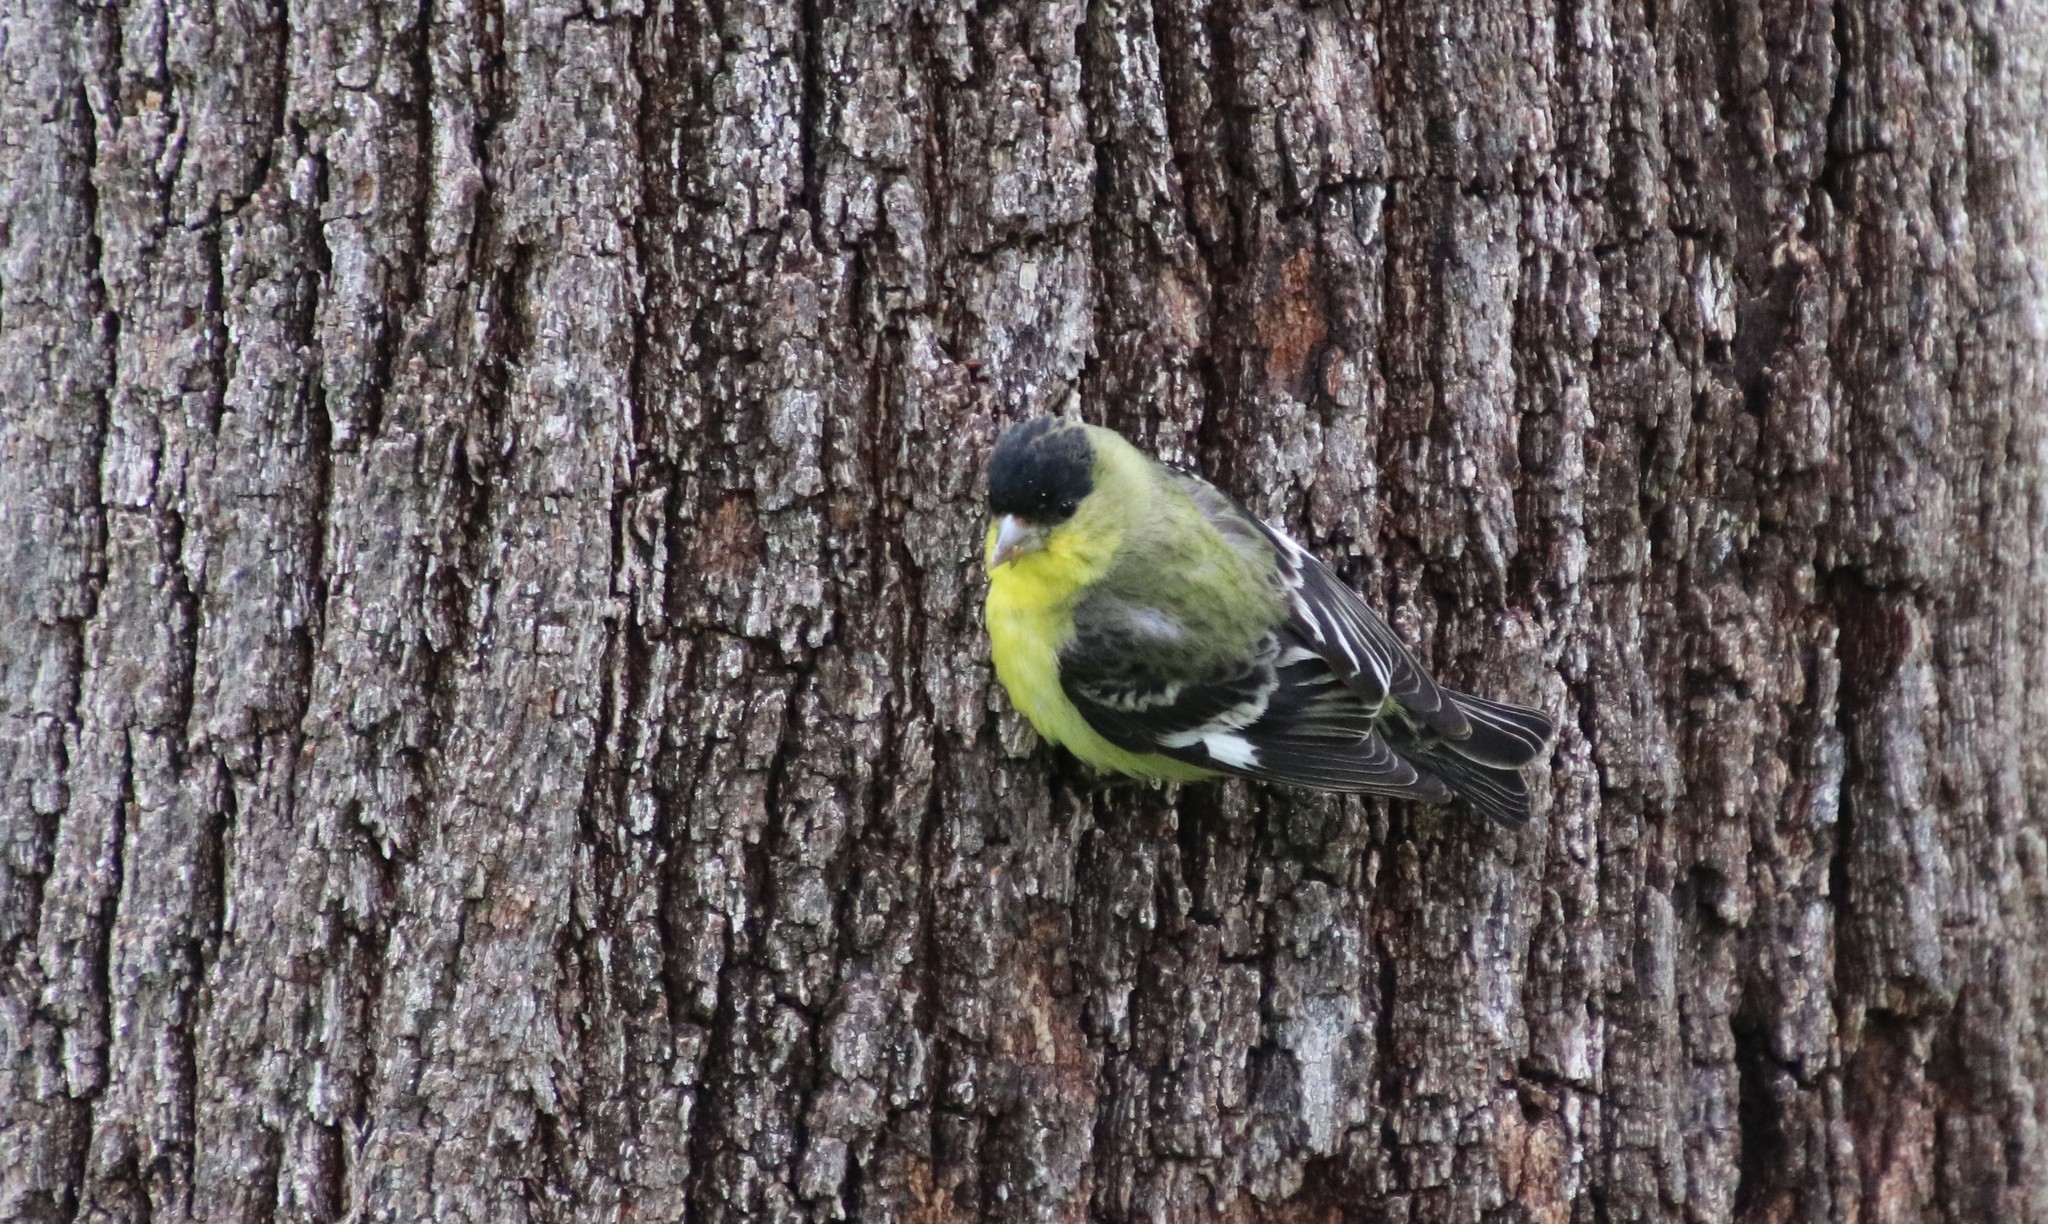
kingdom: Animalia
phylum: Chordata
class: Aves
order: Passeriformes
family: Fringillidae
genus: Spinus
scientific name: Spinus psaltria
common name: Lesser goldfinch
